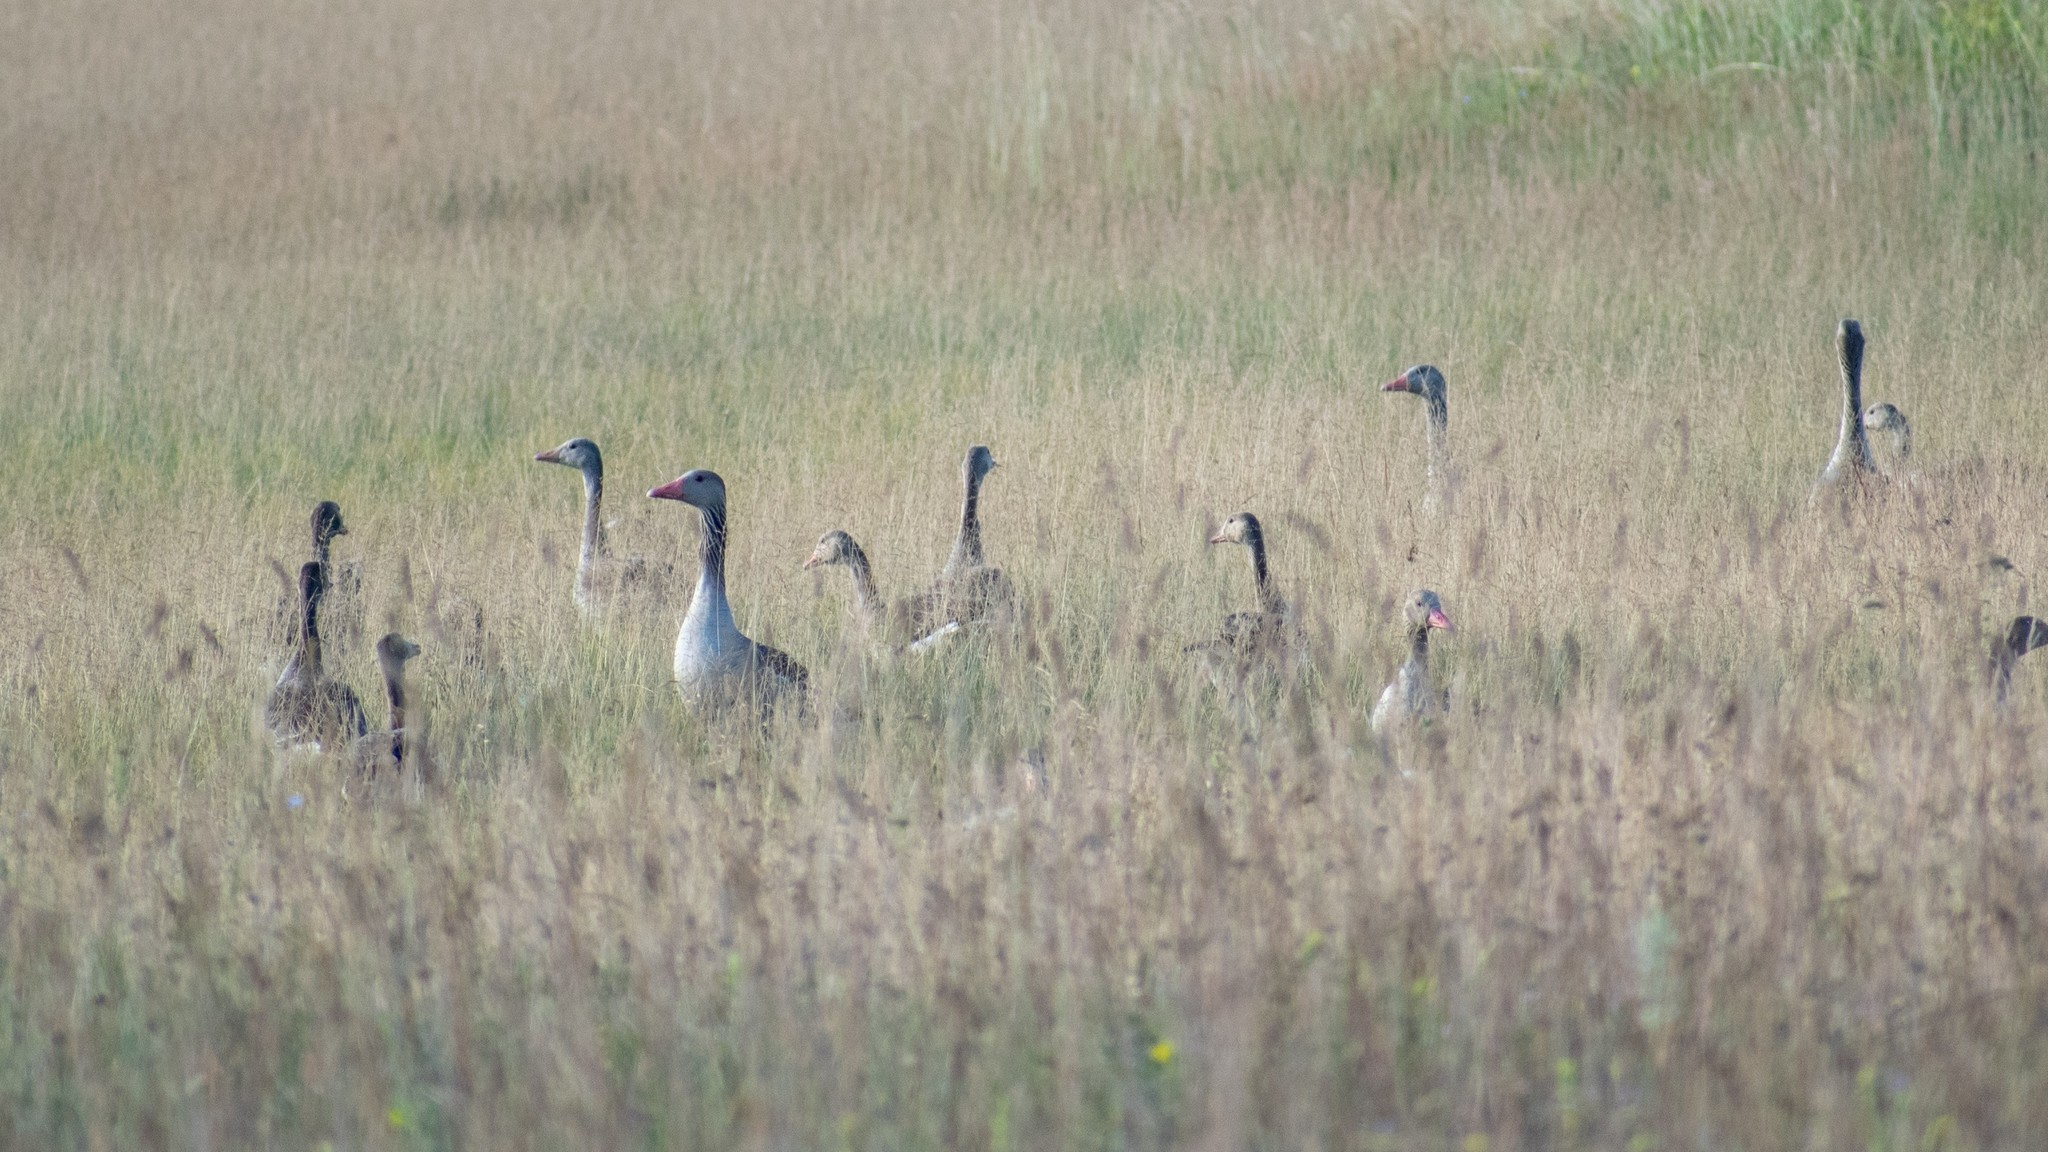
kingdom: Animalia
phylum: Chordata
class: Aves
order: Anseriformes
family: Anatidae
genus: Anser
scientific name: Anser anser
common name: Greylag goose
